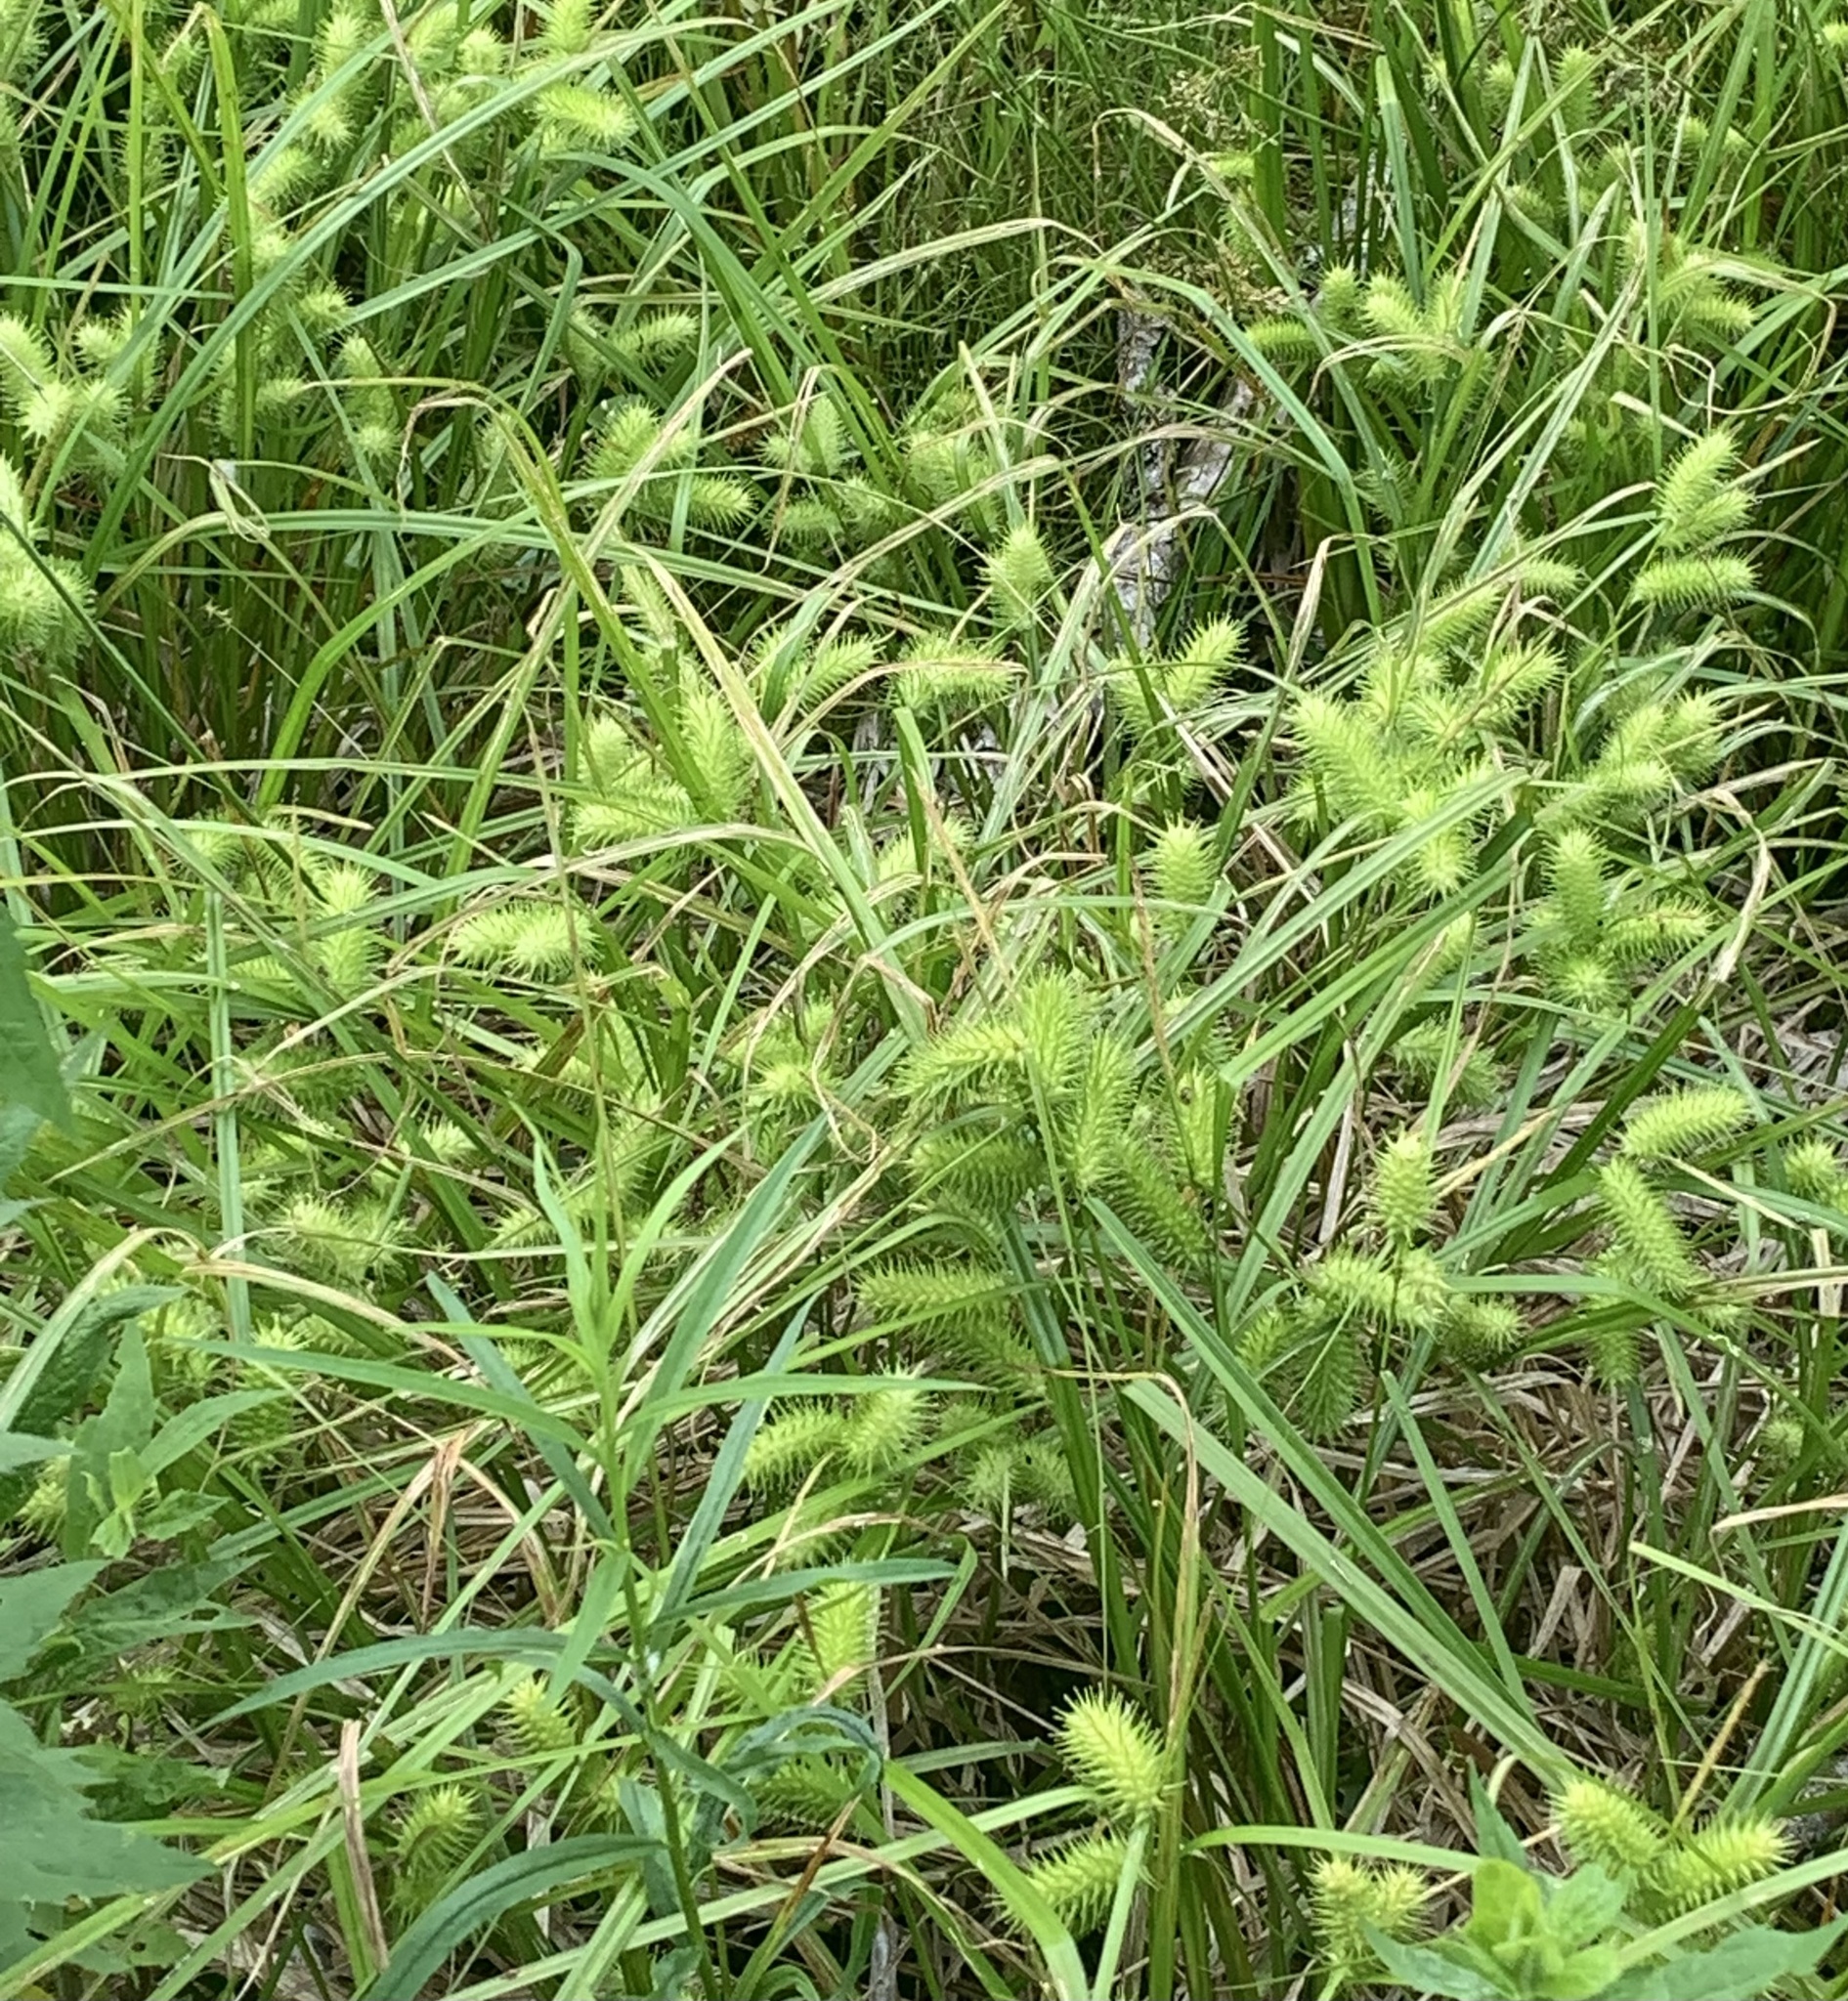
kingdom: Plantae
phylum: Tracheophyta
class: Liliopsida
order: Poales
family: Cyperaceae
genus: Carex
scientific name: Carex lurida
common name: Sallow sedge
